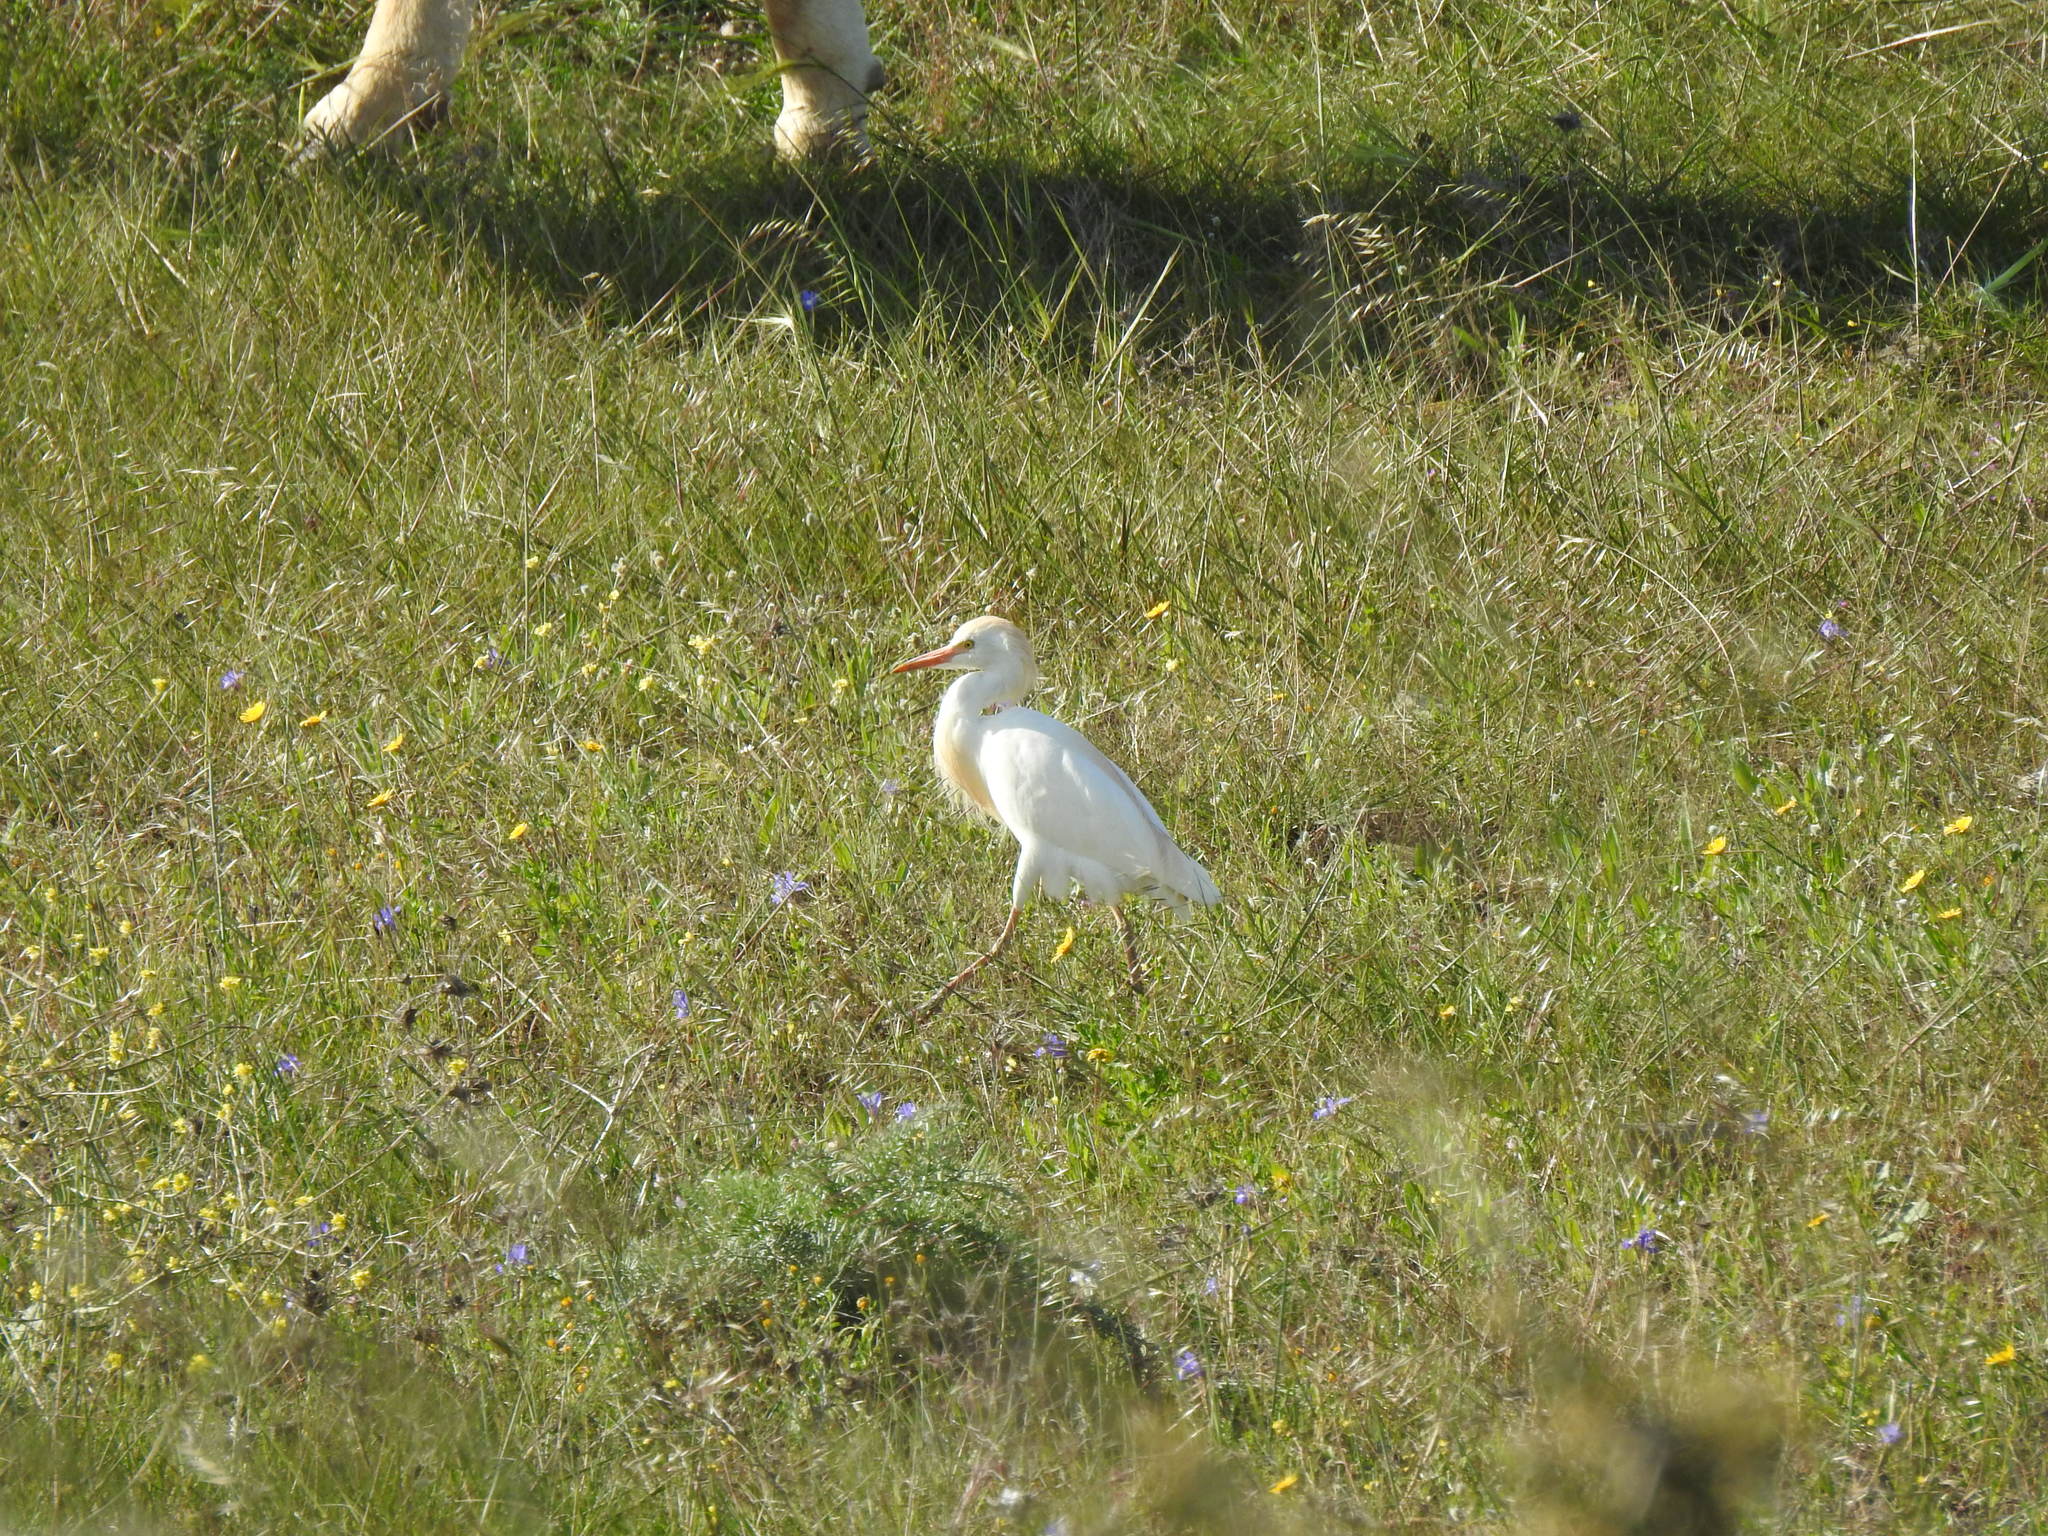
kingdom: Animalia
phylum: Chordata
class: Aves
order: Pelecaniformes
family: Ardeidae
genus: Bubulcus
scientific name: Bubulcus ibis
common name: Cattle egret
